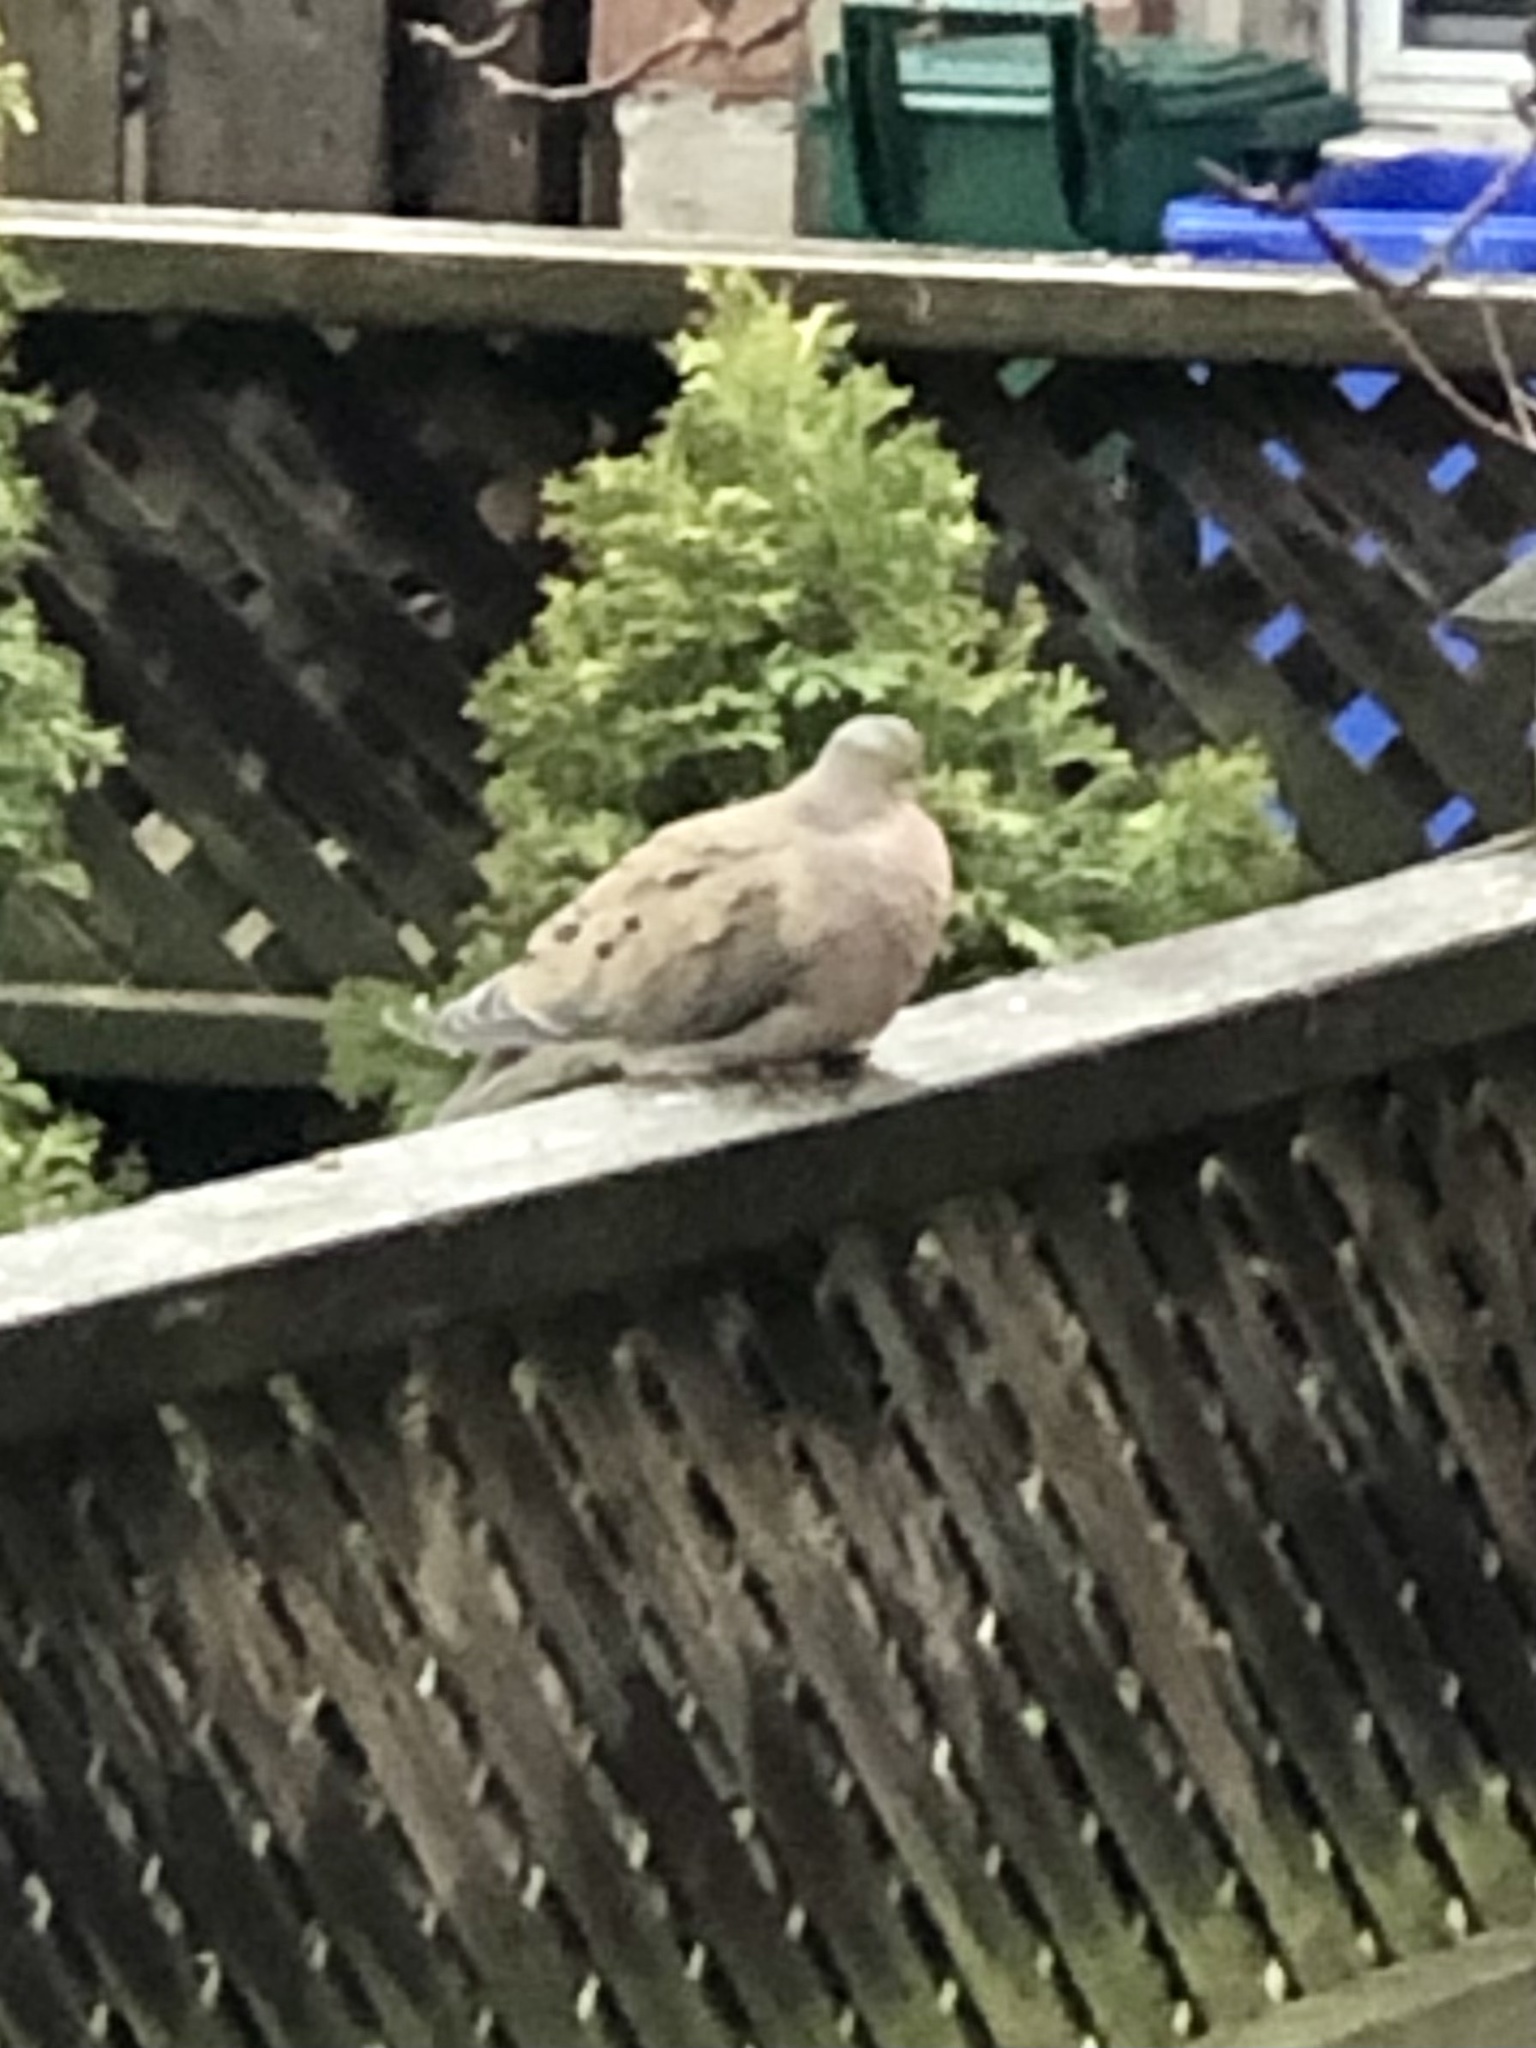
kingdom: Animalia
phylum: Chordata
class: Aves
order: Columbiformes
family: Columbidae
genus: Zenaida
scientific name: Zenaida macroura
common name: Mourning dove
